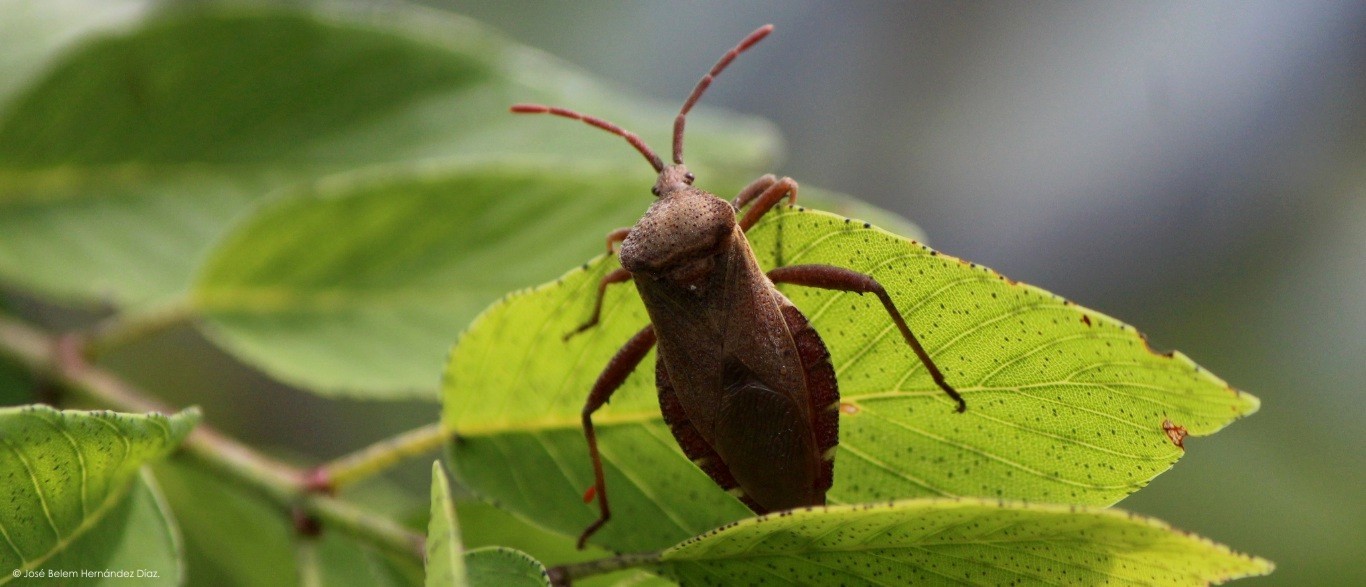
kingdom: Animalia
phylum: Arthropoda
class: Insecta
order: Hemiptera
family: Coreidae
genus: Piezogaster
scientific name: Piezogaster indecorus
